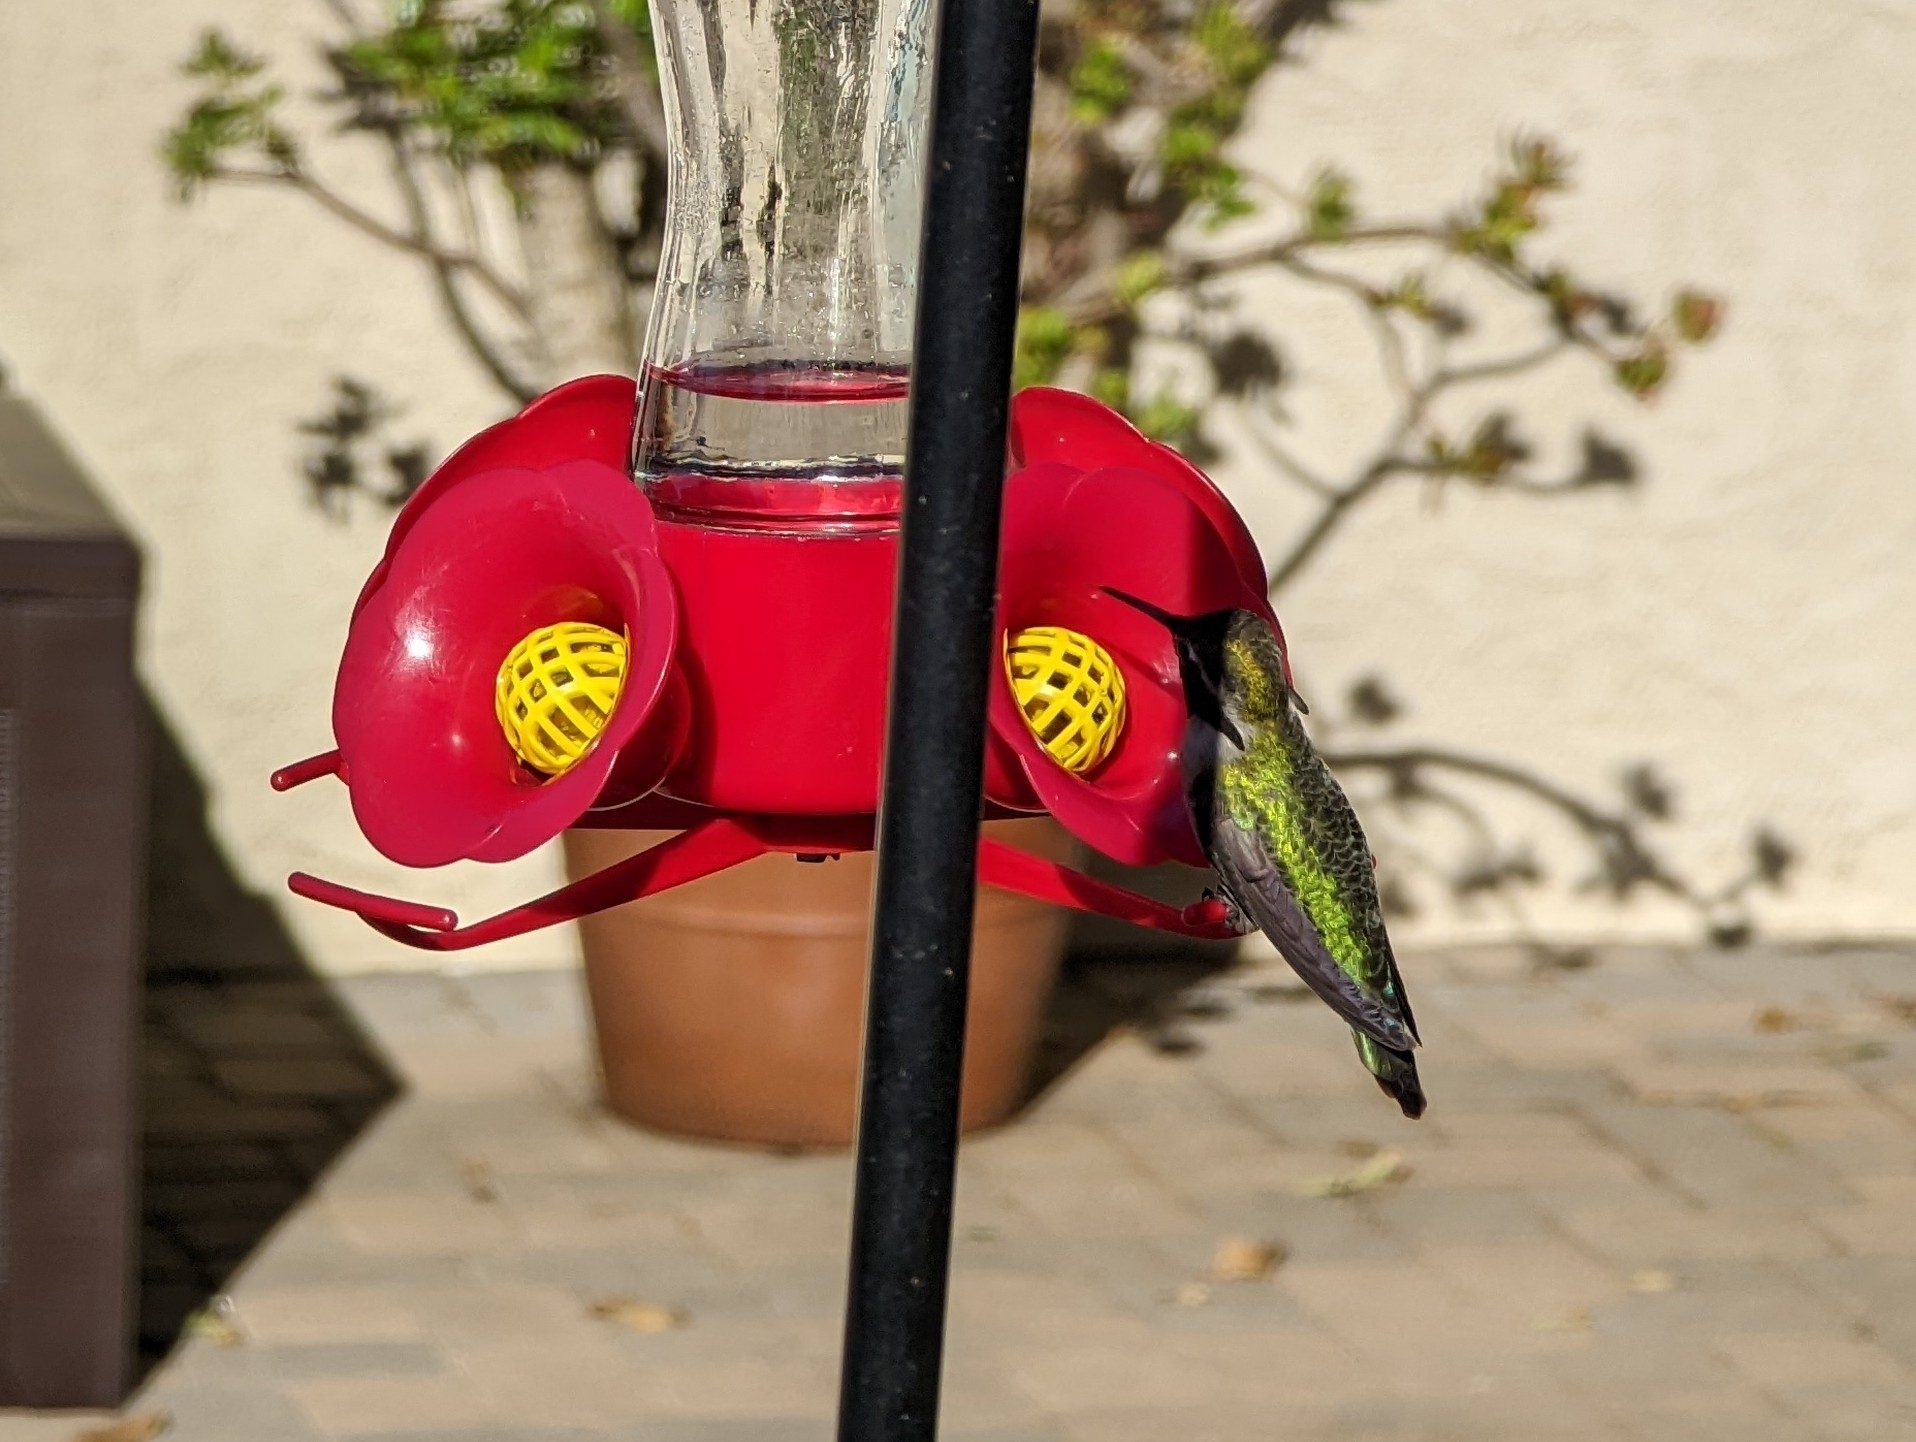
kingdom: Animalia
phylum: Chordata
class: Aves
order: Apodiformes
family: Trochilidae
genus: Calypte
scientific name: Calypte anna
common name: Anna's hummingbird
